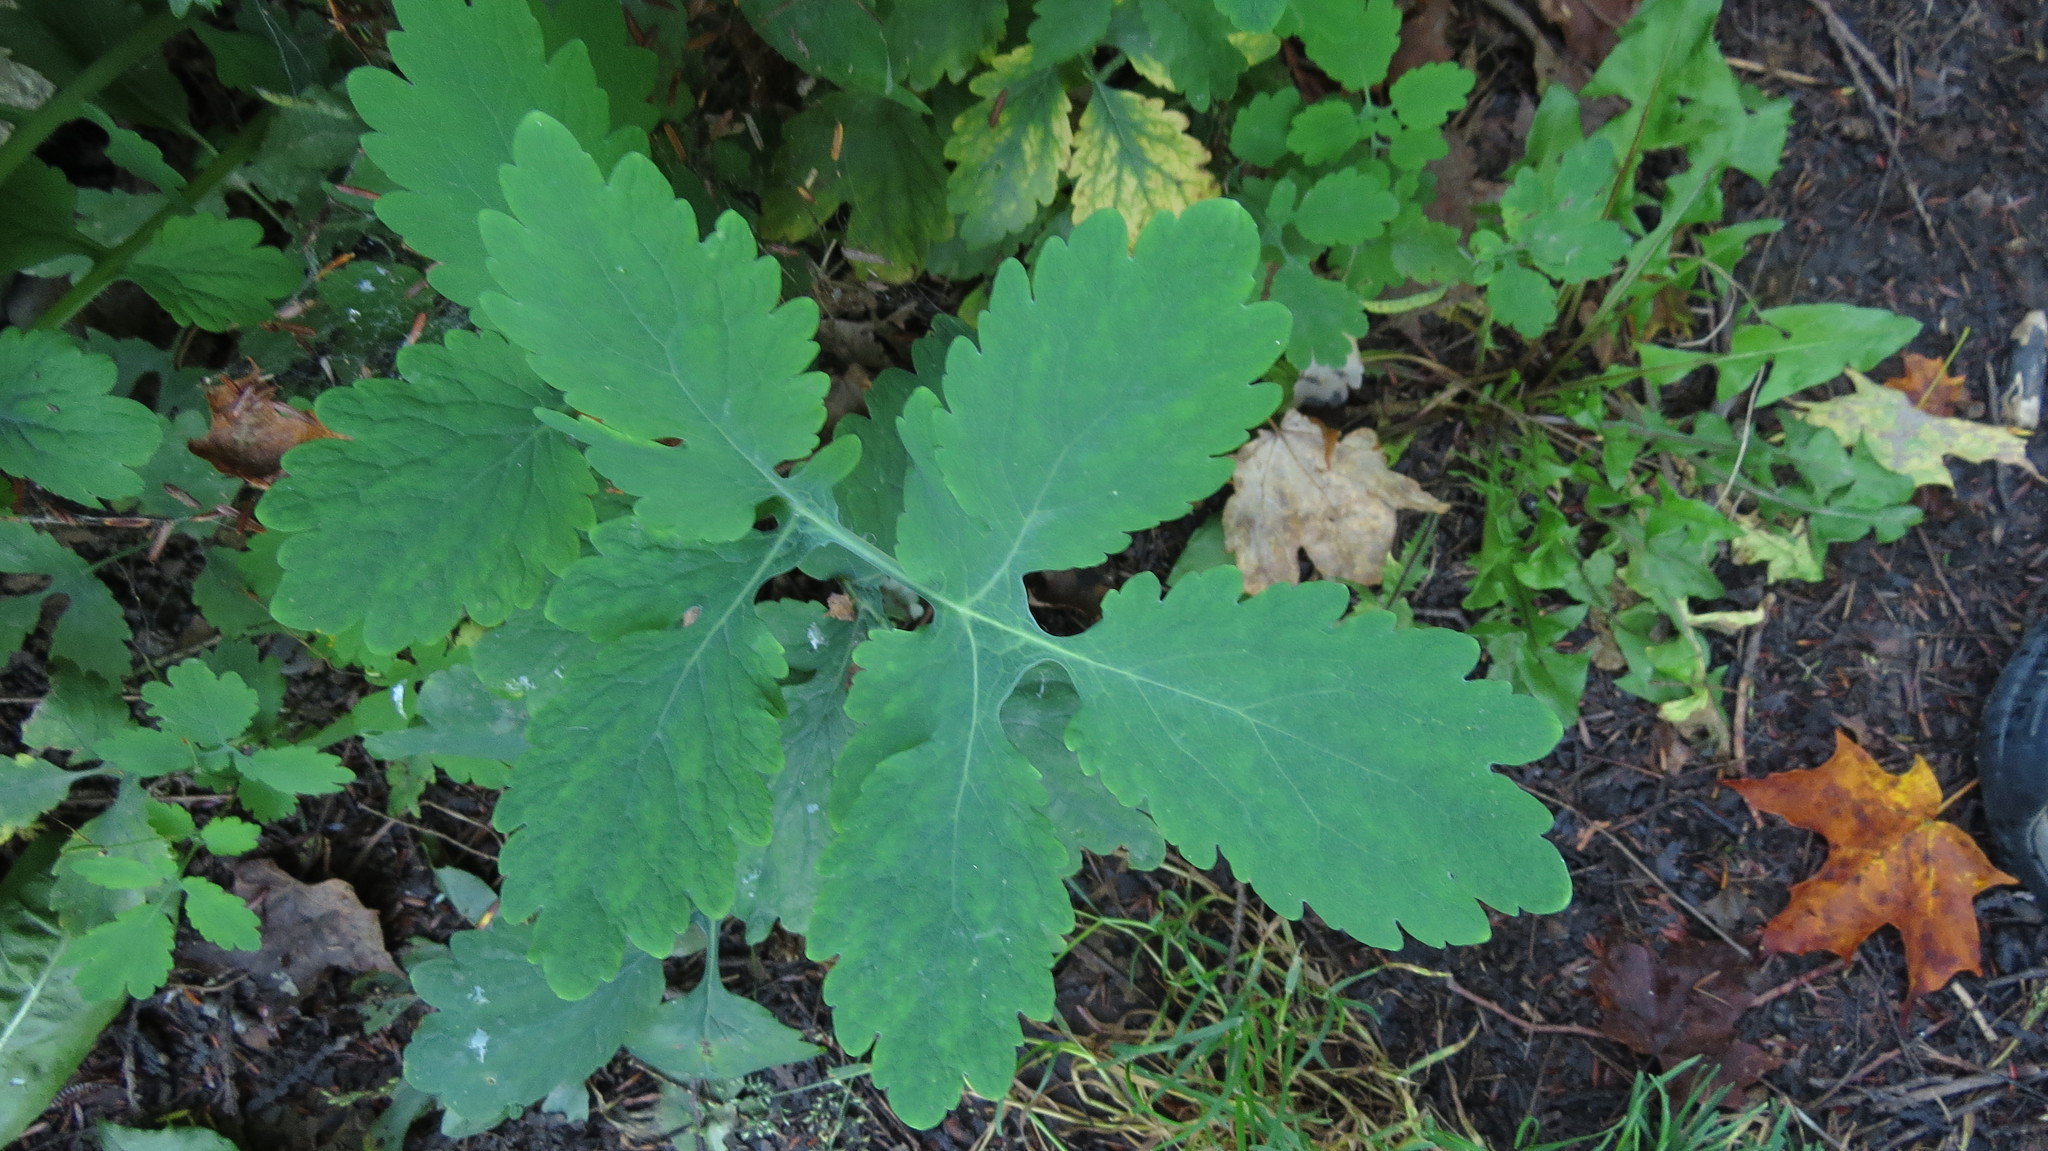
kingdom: Plantae
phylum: Tracheophyta
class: Magnoliopsida
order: Ranunculales
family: Papaveraceae
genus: Chelidonium
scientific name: Chelidonium majus
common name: Greater celandine
